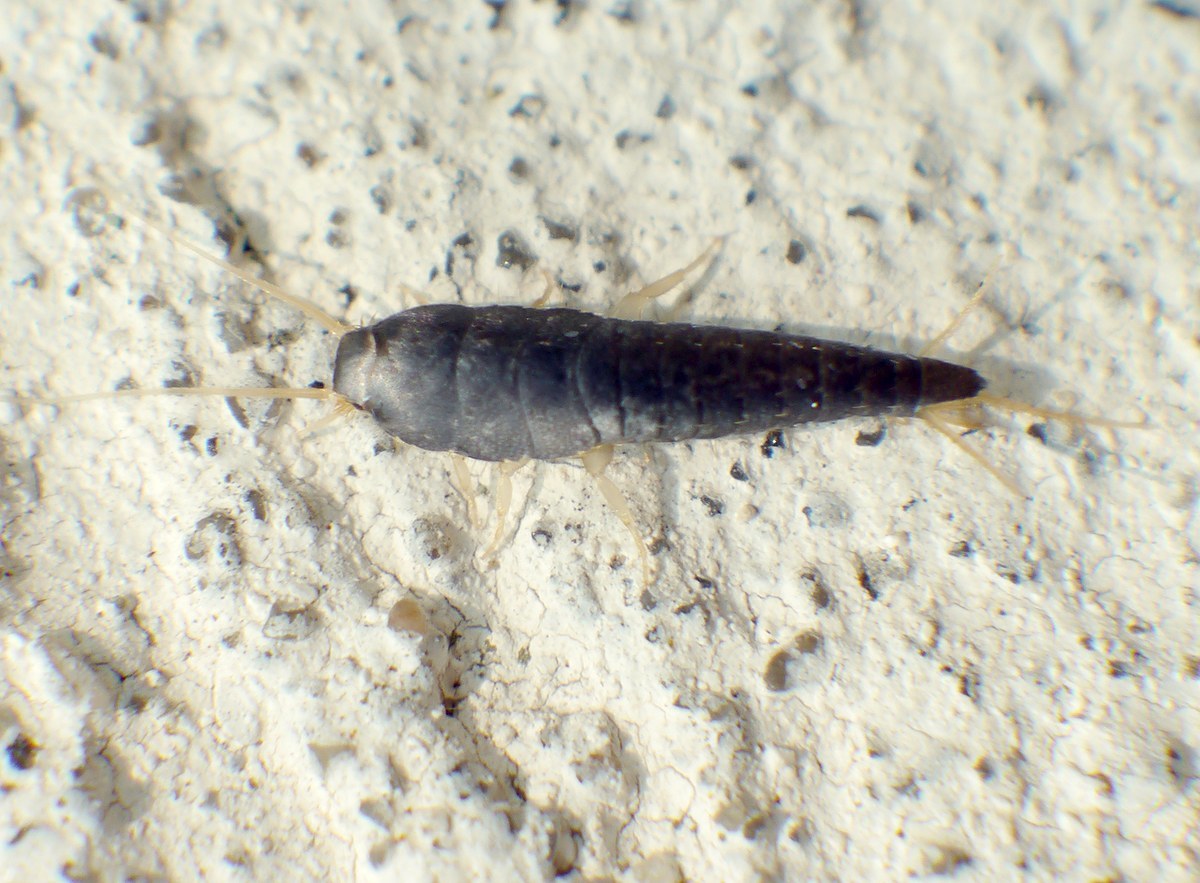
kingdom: Animalia
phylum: Arthropoda
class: Insecta
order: Zygentoma
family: Lepismatidae
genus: Lepisma
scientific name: Lepisma saccharinum
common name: Silverfish
